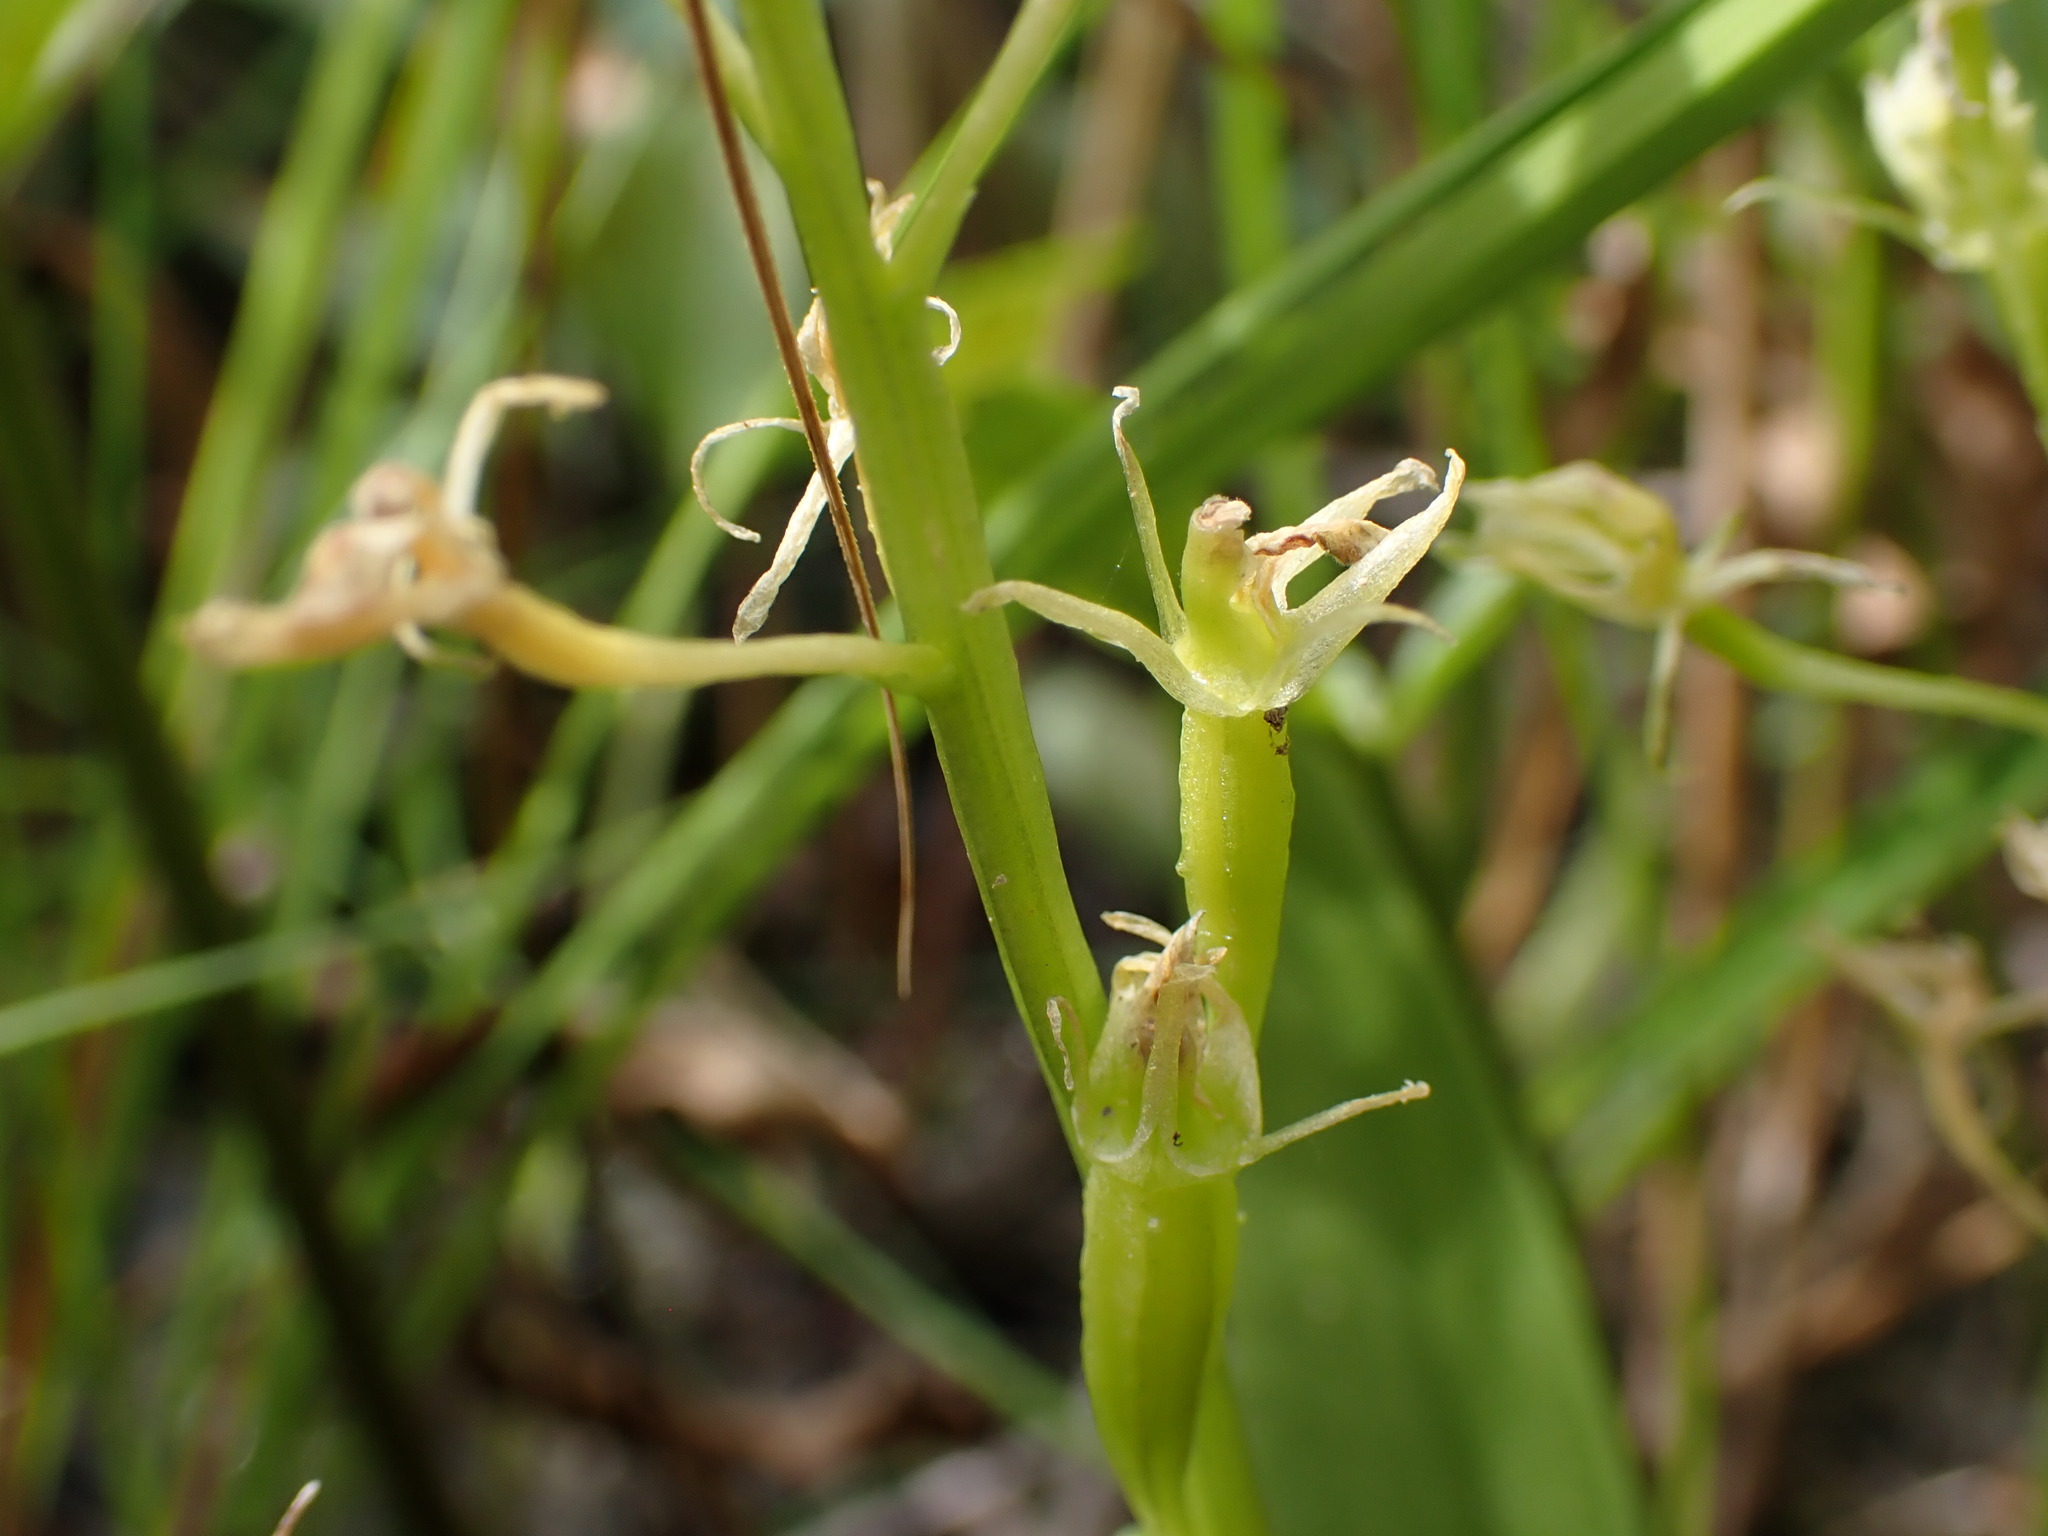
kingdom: Animalia
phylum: Arthropoda
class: Insecta
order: Coleoptera
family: Curculionidae
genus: Liparis
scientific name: Liparis loeselii
